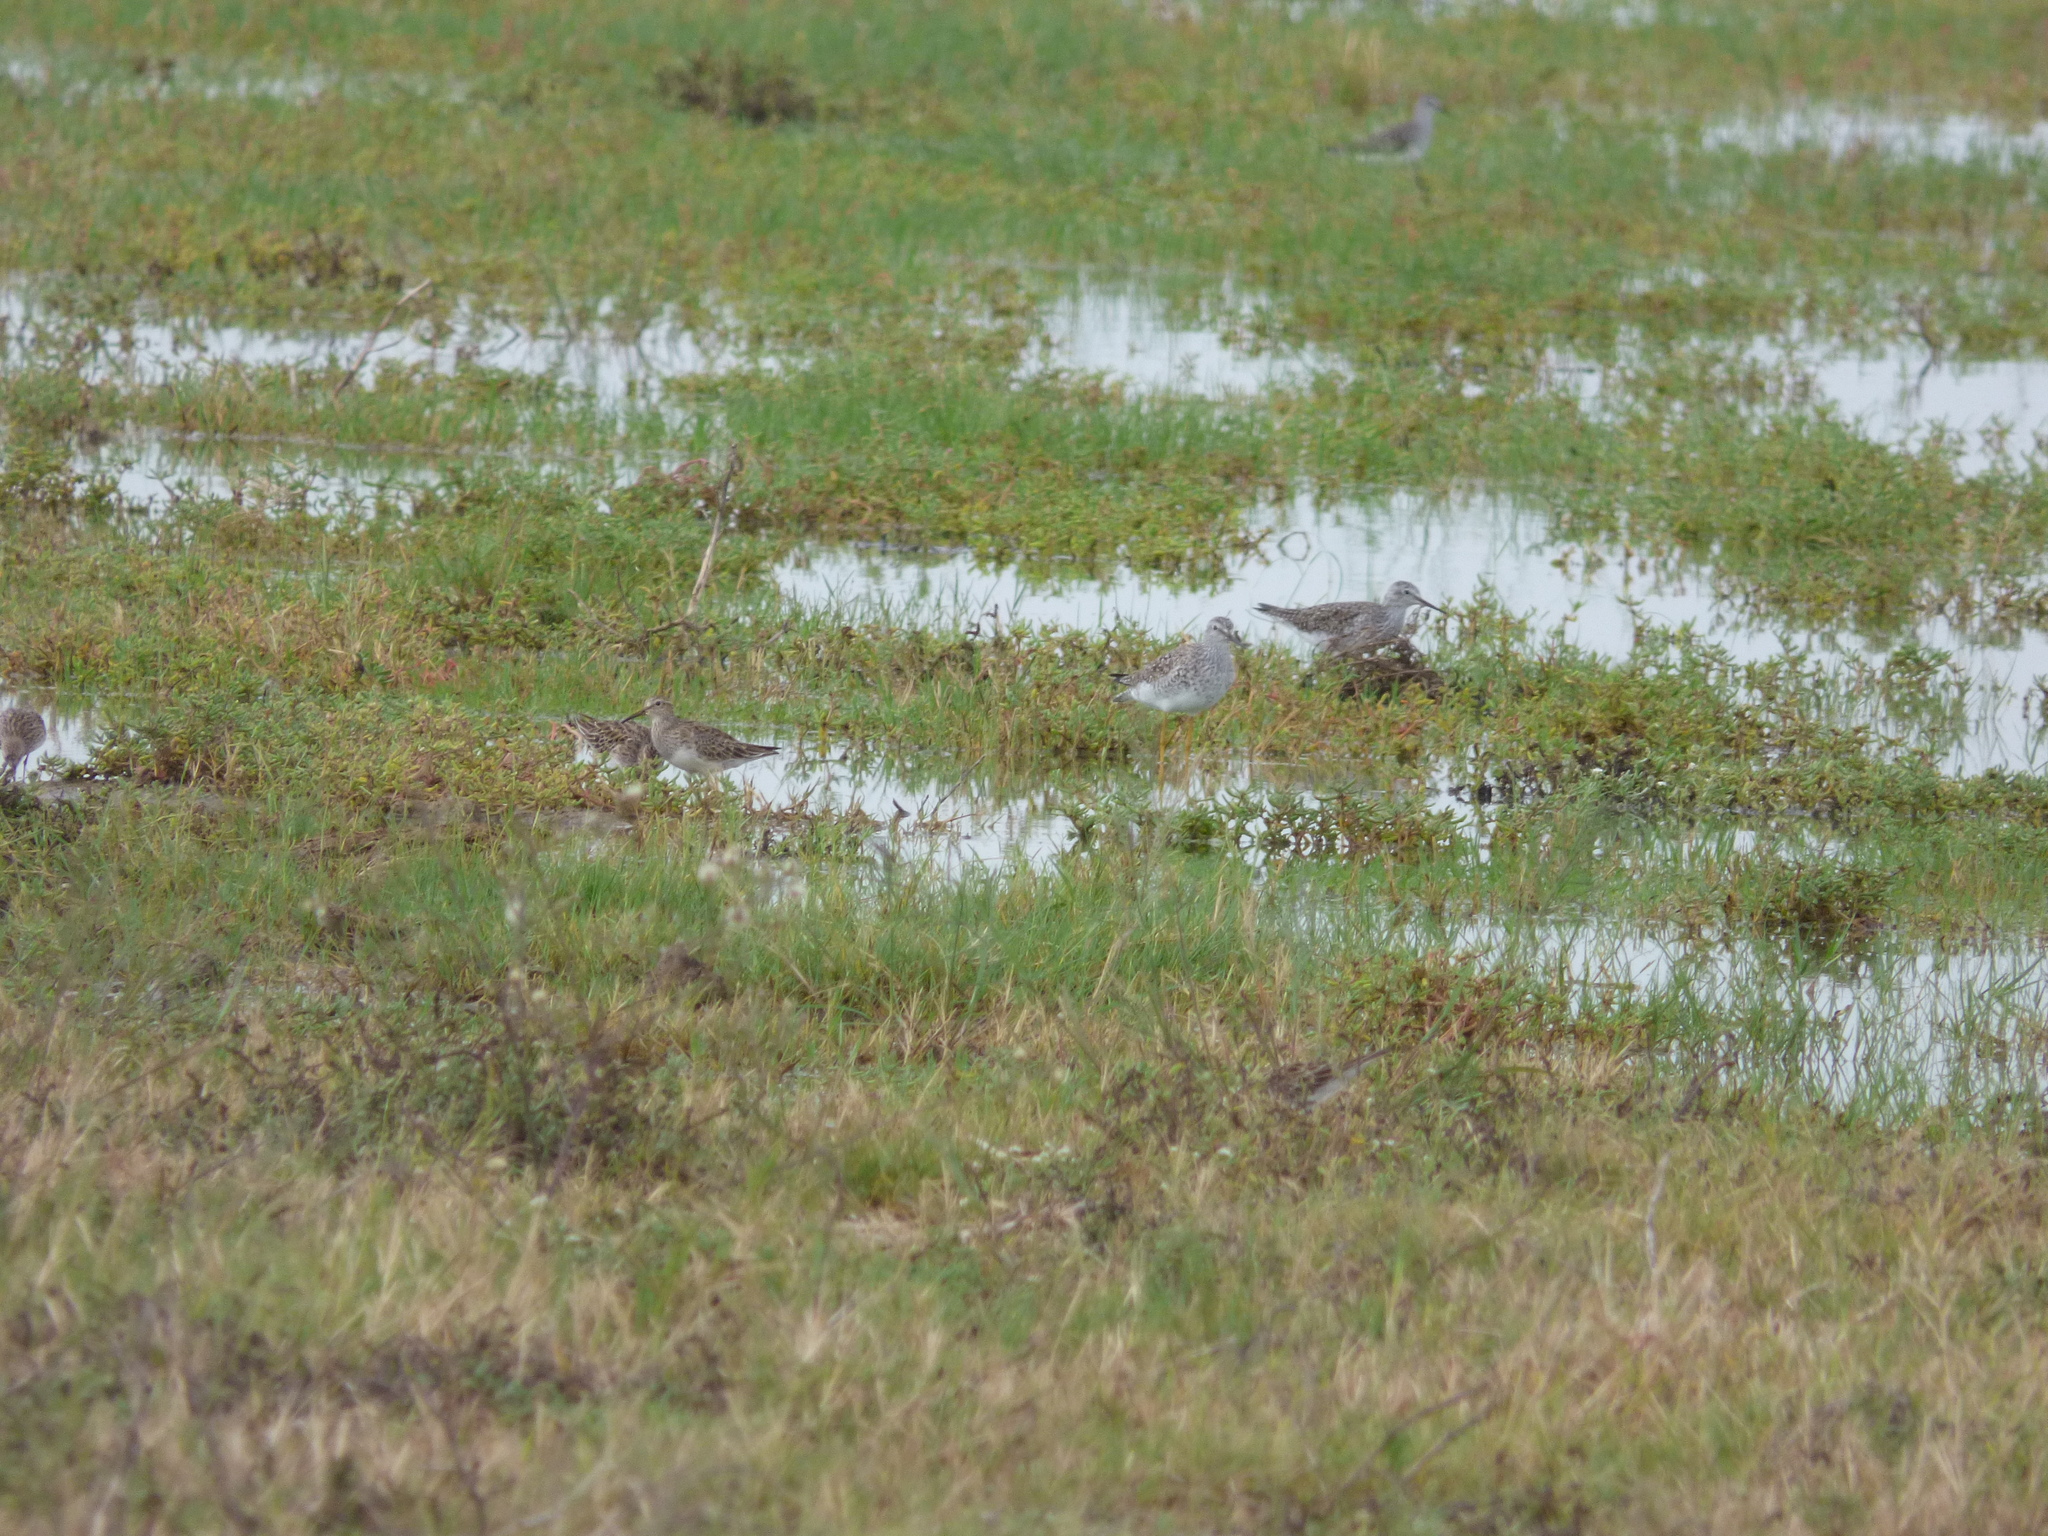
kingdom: Animalia
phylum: Chordata
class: Aves
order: Charadriiformes
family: Scolopacidae
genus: Calidris
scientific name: Calidris melanotos
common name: Pectoral sandpiper
